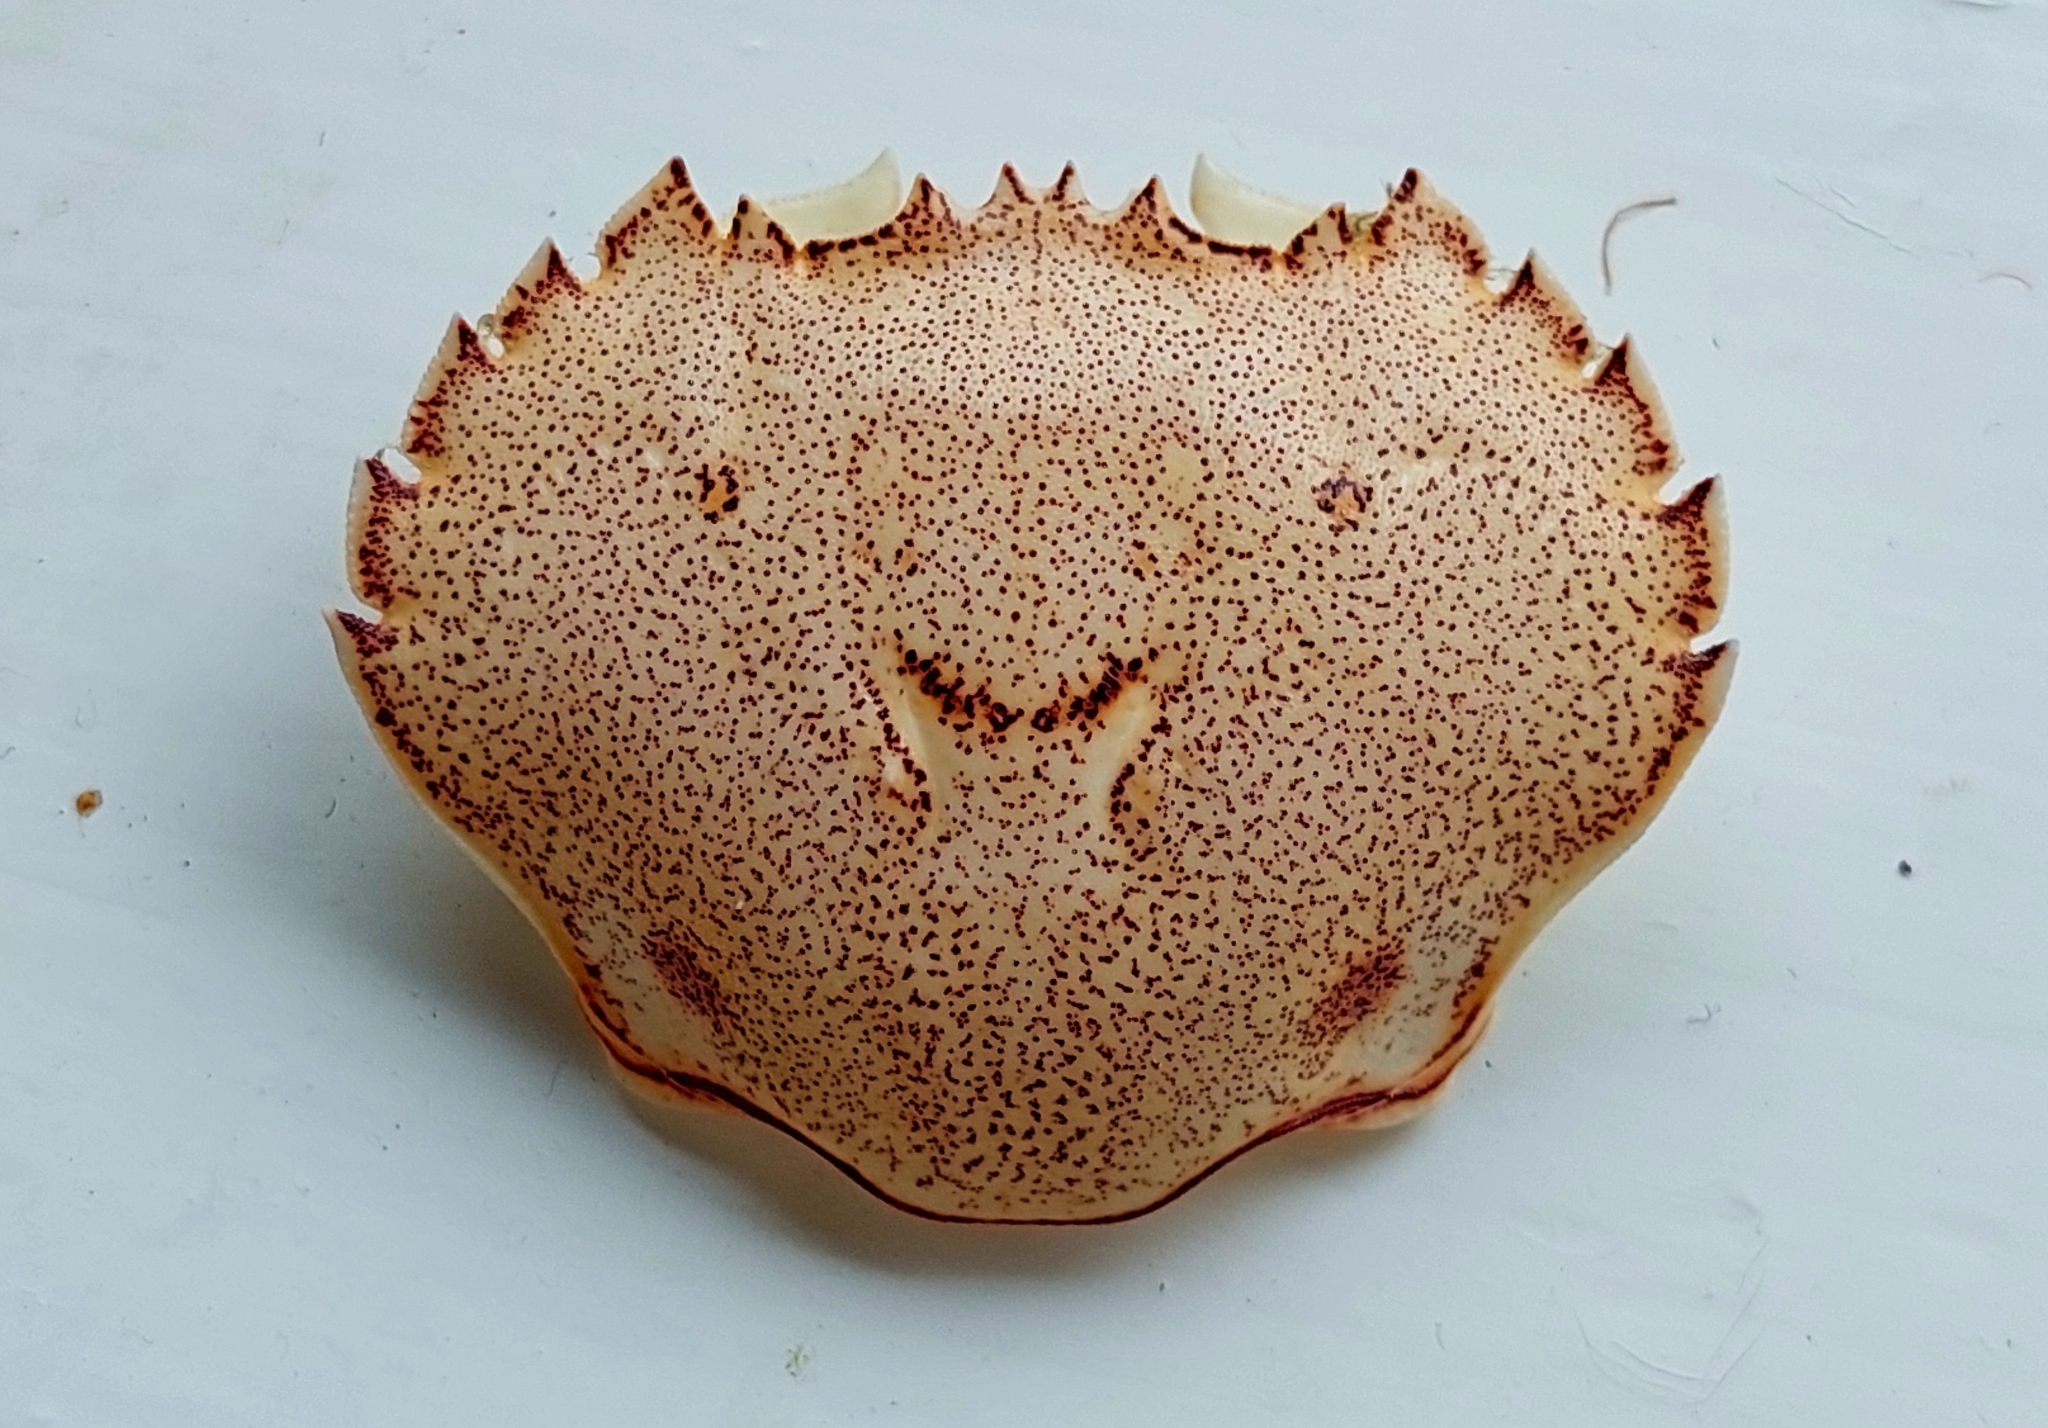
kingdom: Animalia
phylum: Arthropoda
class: Malacostraca
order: Decapoda
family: Ovalipidae
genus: Ovalipes
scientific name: Ovalipes catharus
